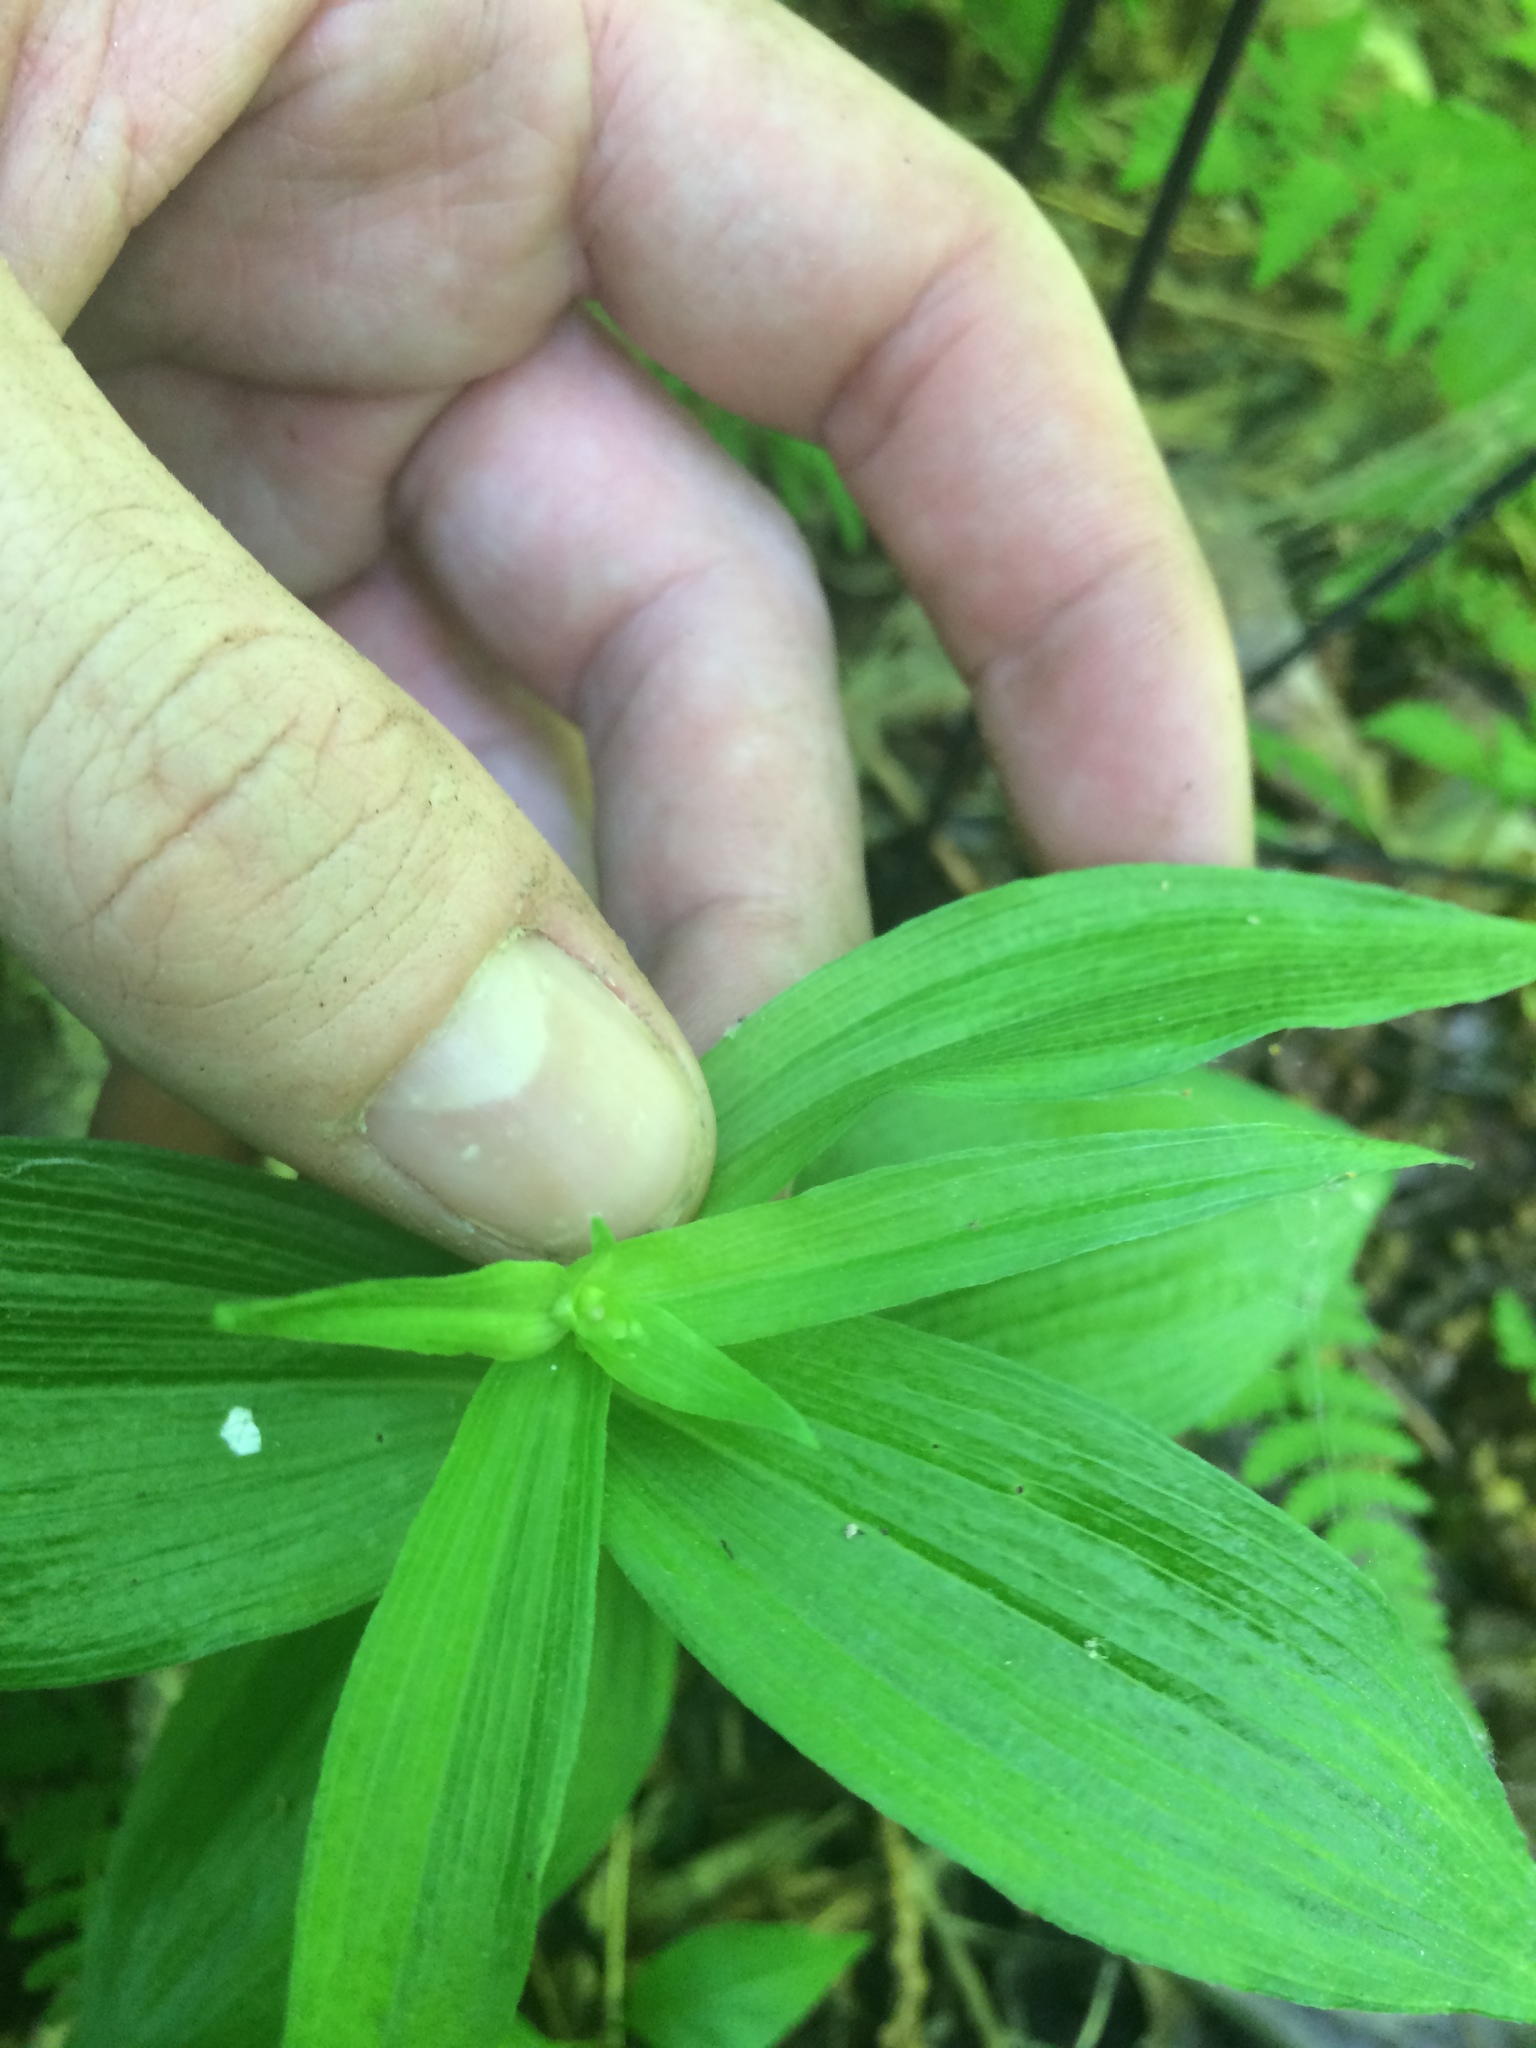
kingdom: Plantae
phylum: Tracheophyta
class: Liliopsida
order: Asparagales
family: Orchidaceae
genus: Epipactis
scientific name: Epipactis helleborine
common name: Broad-leaved helleborine
